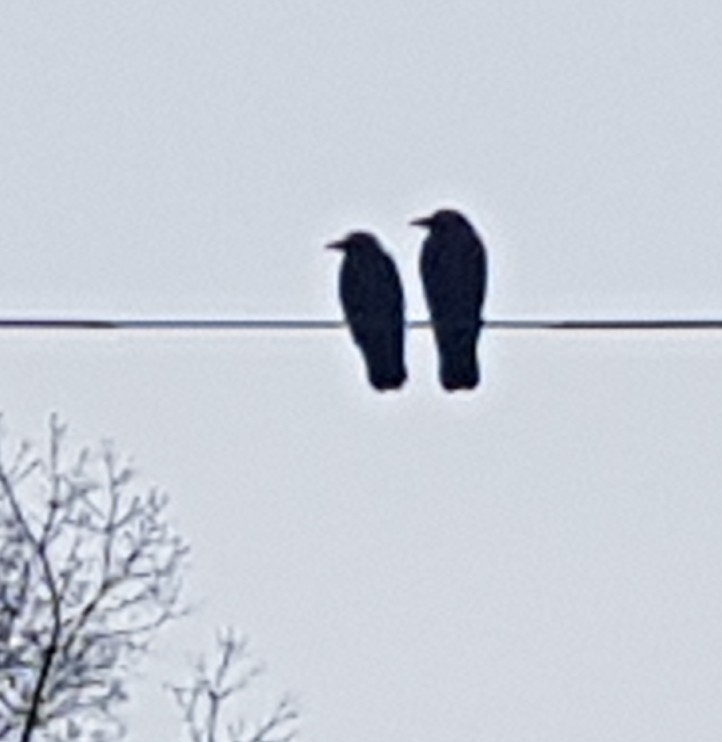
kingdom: Animalia
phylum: Chordata
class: Aves
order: Passeriformes
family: Corvidae
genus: Corvus
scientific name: Corvus brachyrhynchos
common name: American crow
